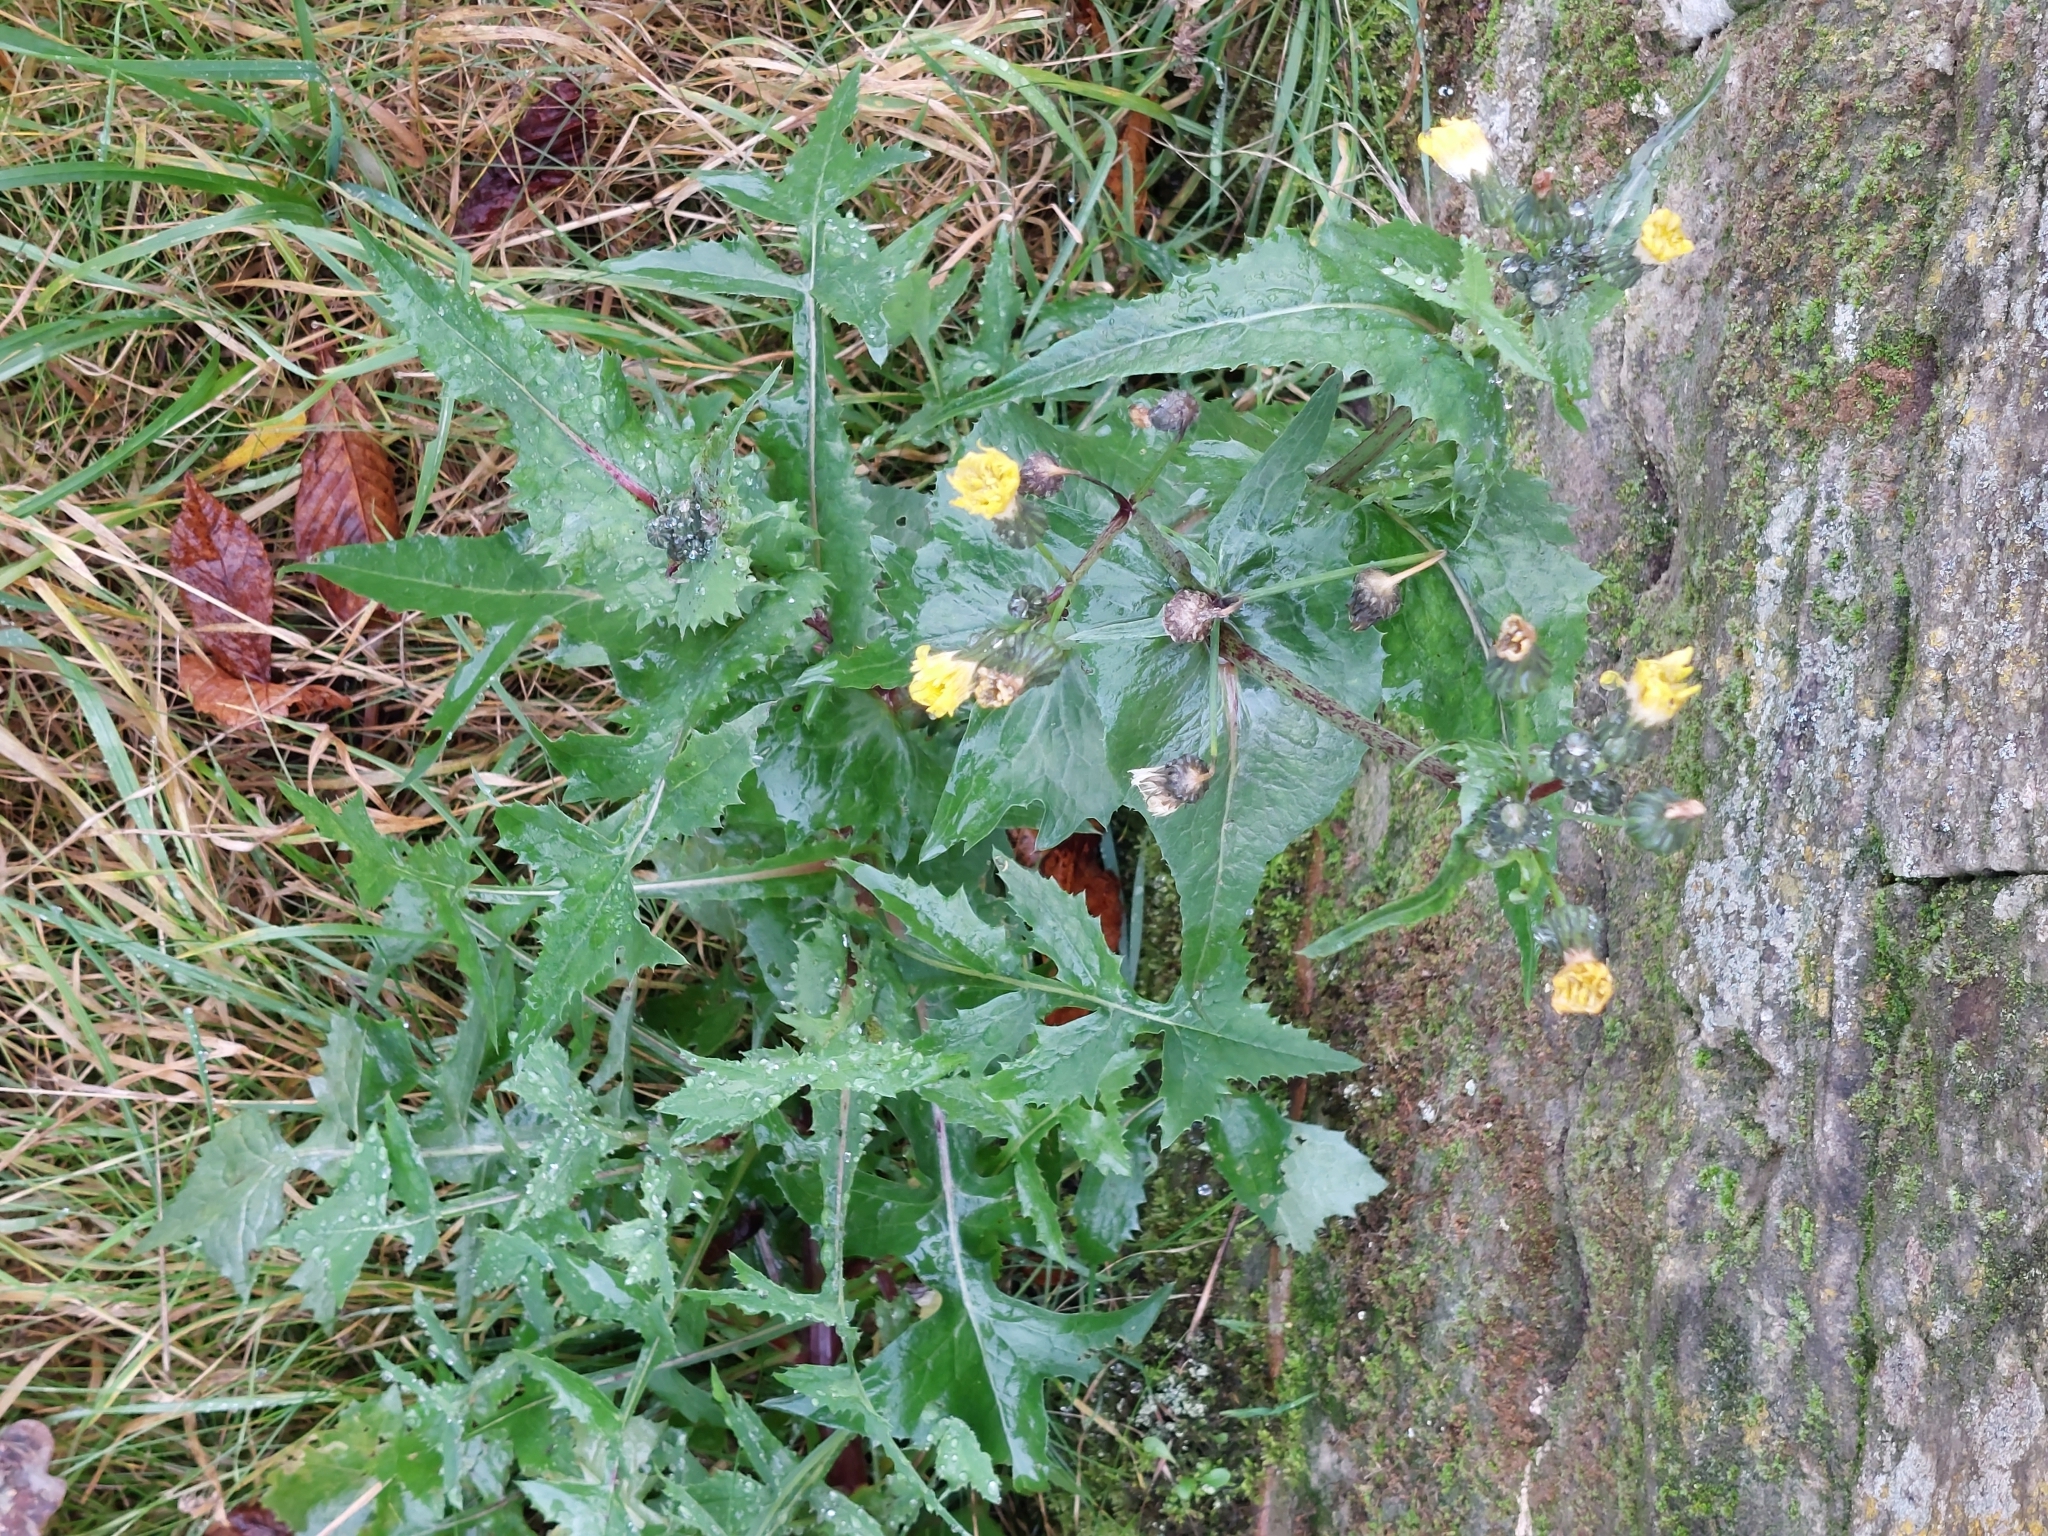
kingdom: Plantae
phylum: Tracheophyta
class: Magnoliopsida
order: Asterales
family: Asteraceae
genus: Sonchus
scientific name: Sonchus oleraceus
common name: Common sowthistle
